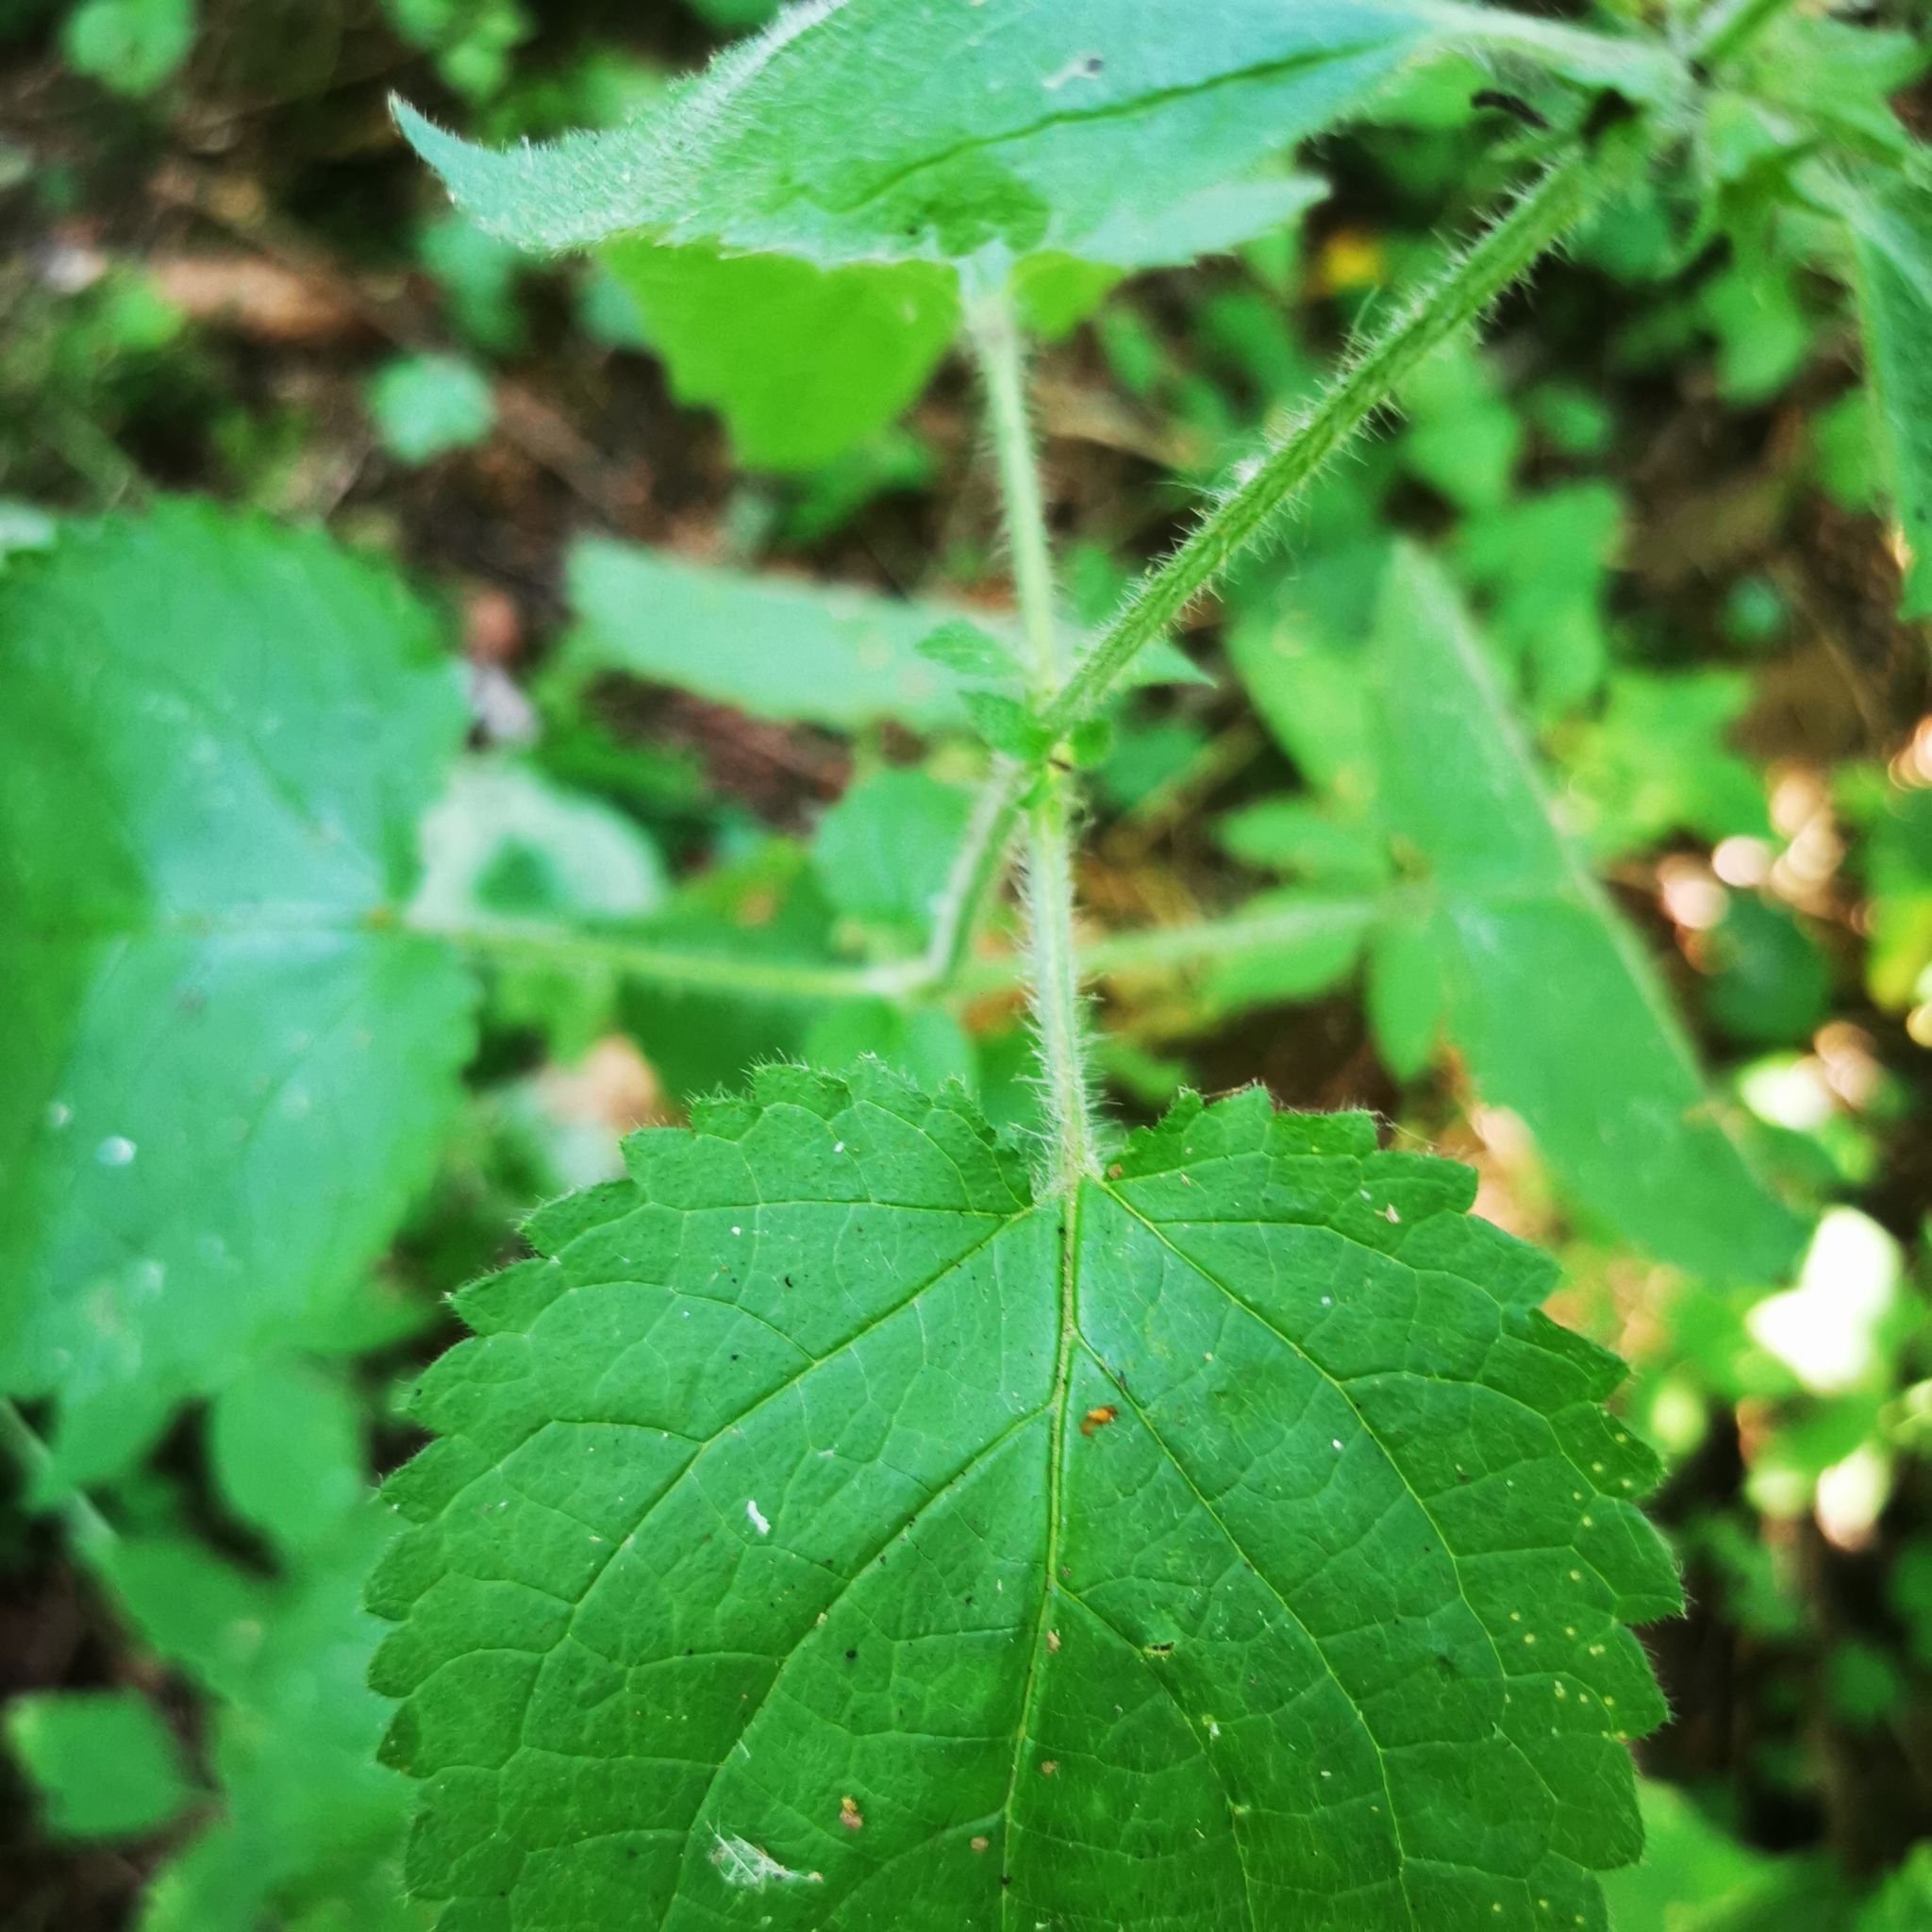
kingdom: Plantae
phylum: Tracheophyta
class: Magnoliopsida
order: Lamiales
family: Lamiaceae
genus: Stachys
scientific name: Stachys sylvatica
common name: Hedge woundwort
